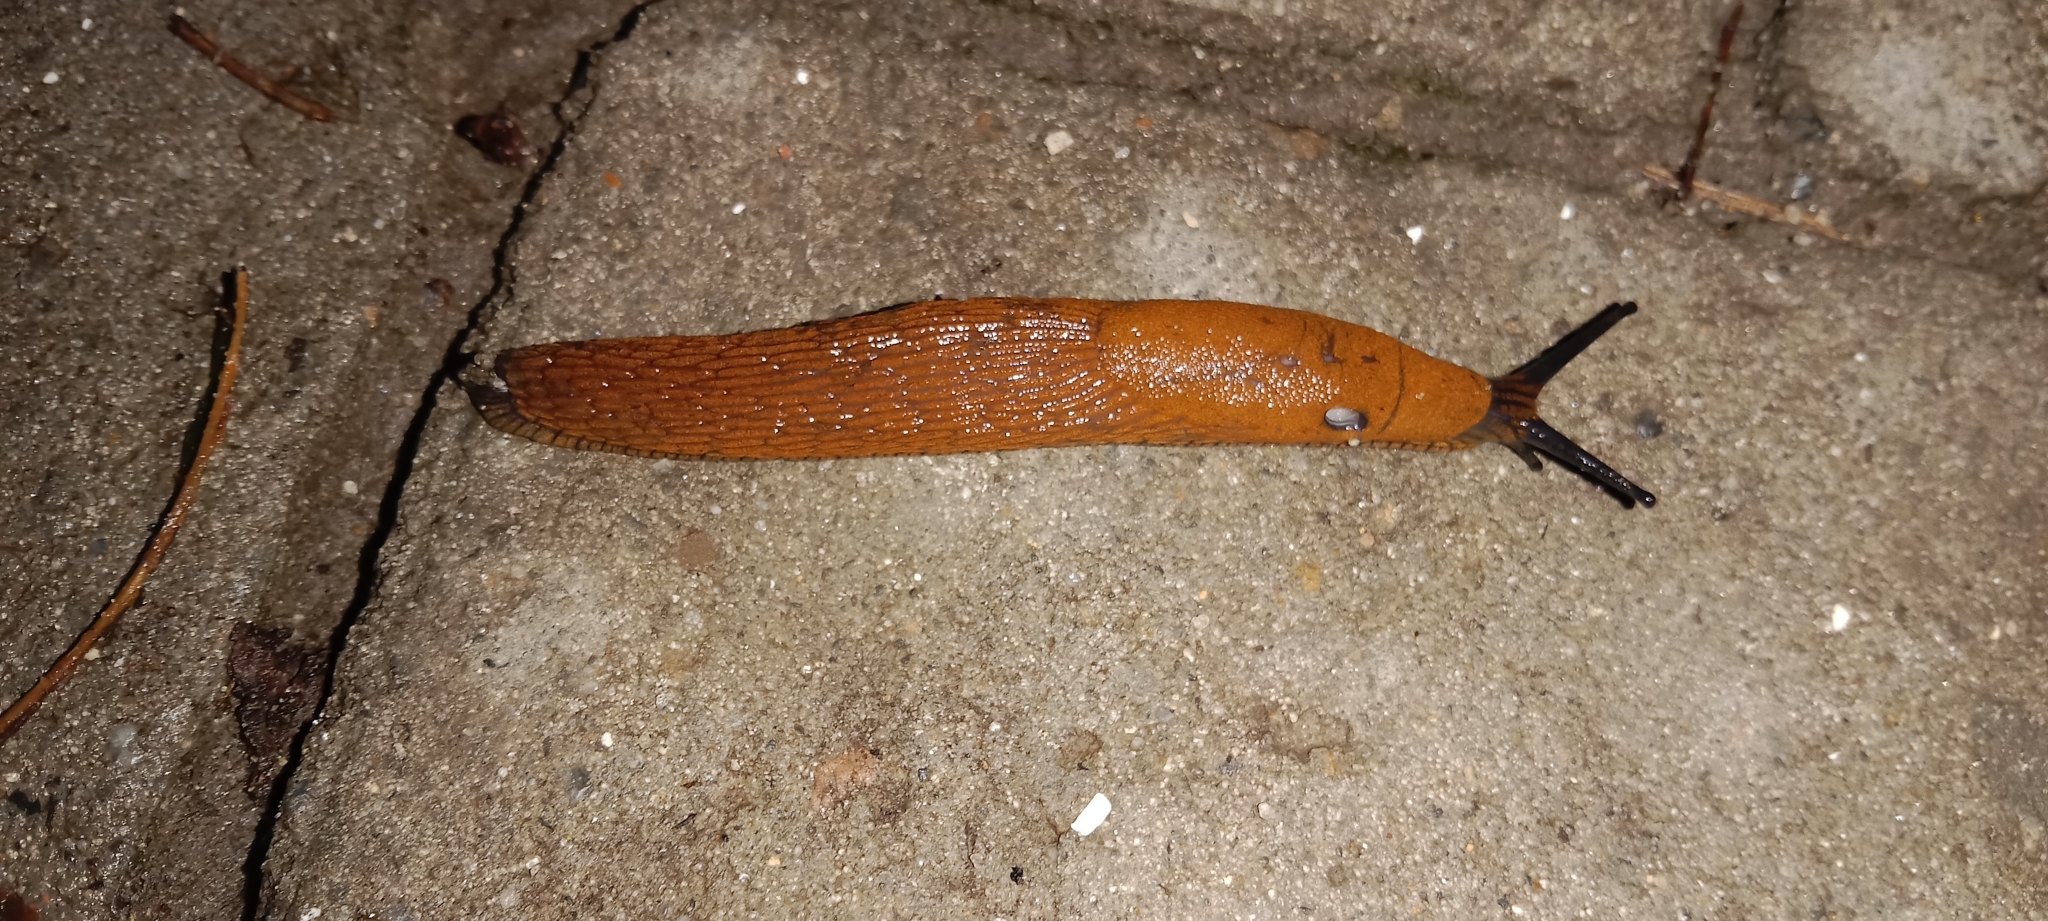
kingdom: Animalia
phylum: Mollusca
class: Gastropoda
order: Stylommatophora
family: Arionidae
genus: Arion
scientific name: Arion vulgaris
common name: Lusitanian slug
